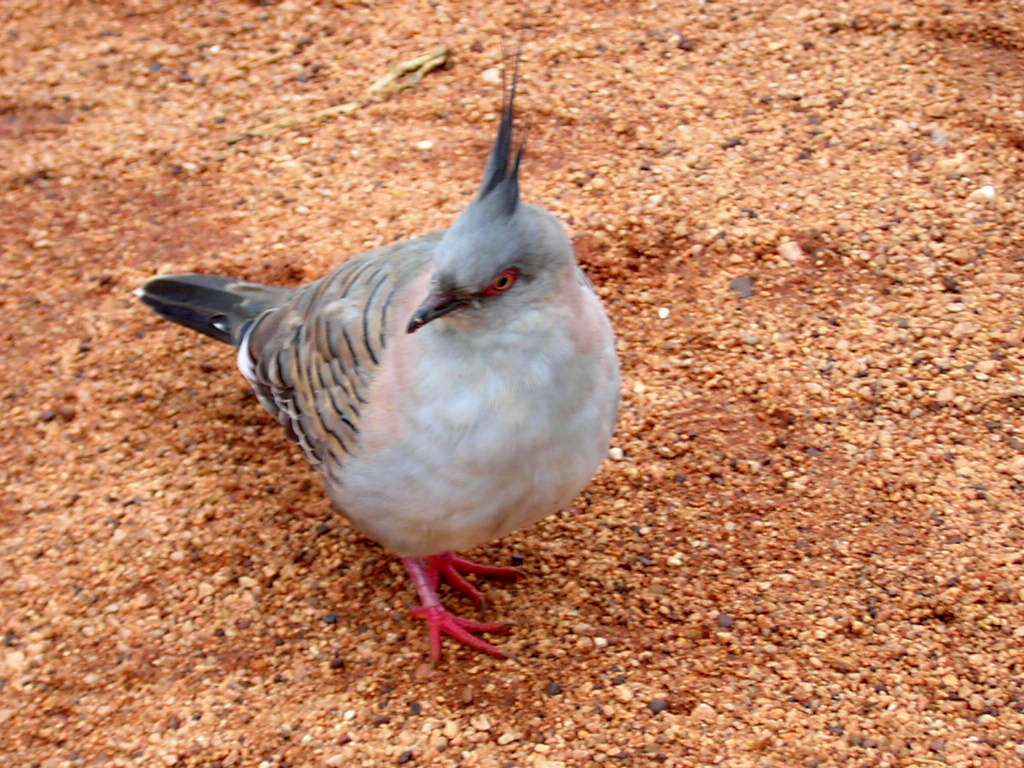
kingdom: Animalia
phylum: Chordata
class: Aves
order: Columbiformes
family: Columbidae
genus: Ocyphaps
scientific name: Ocyphaps lophotes
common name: Crested pigeon
